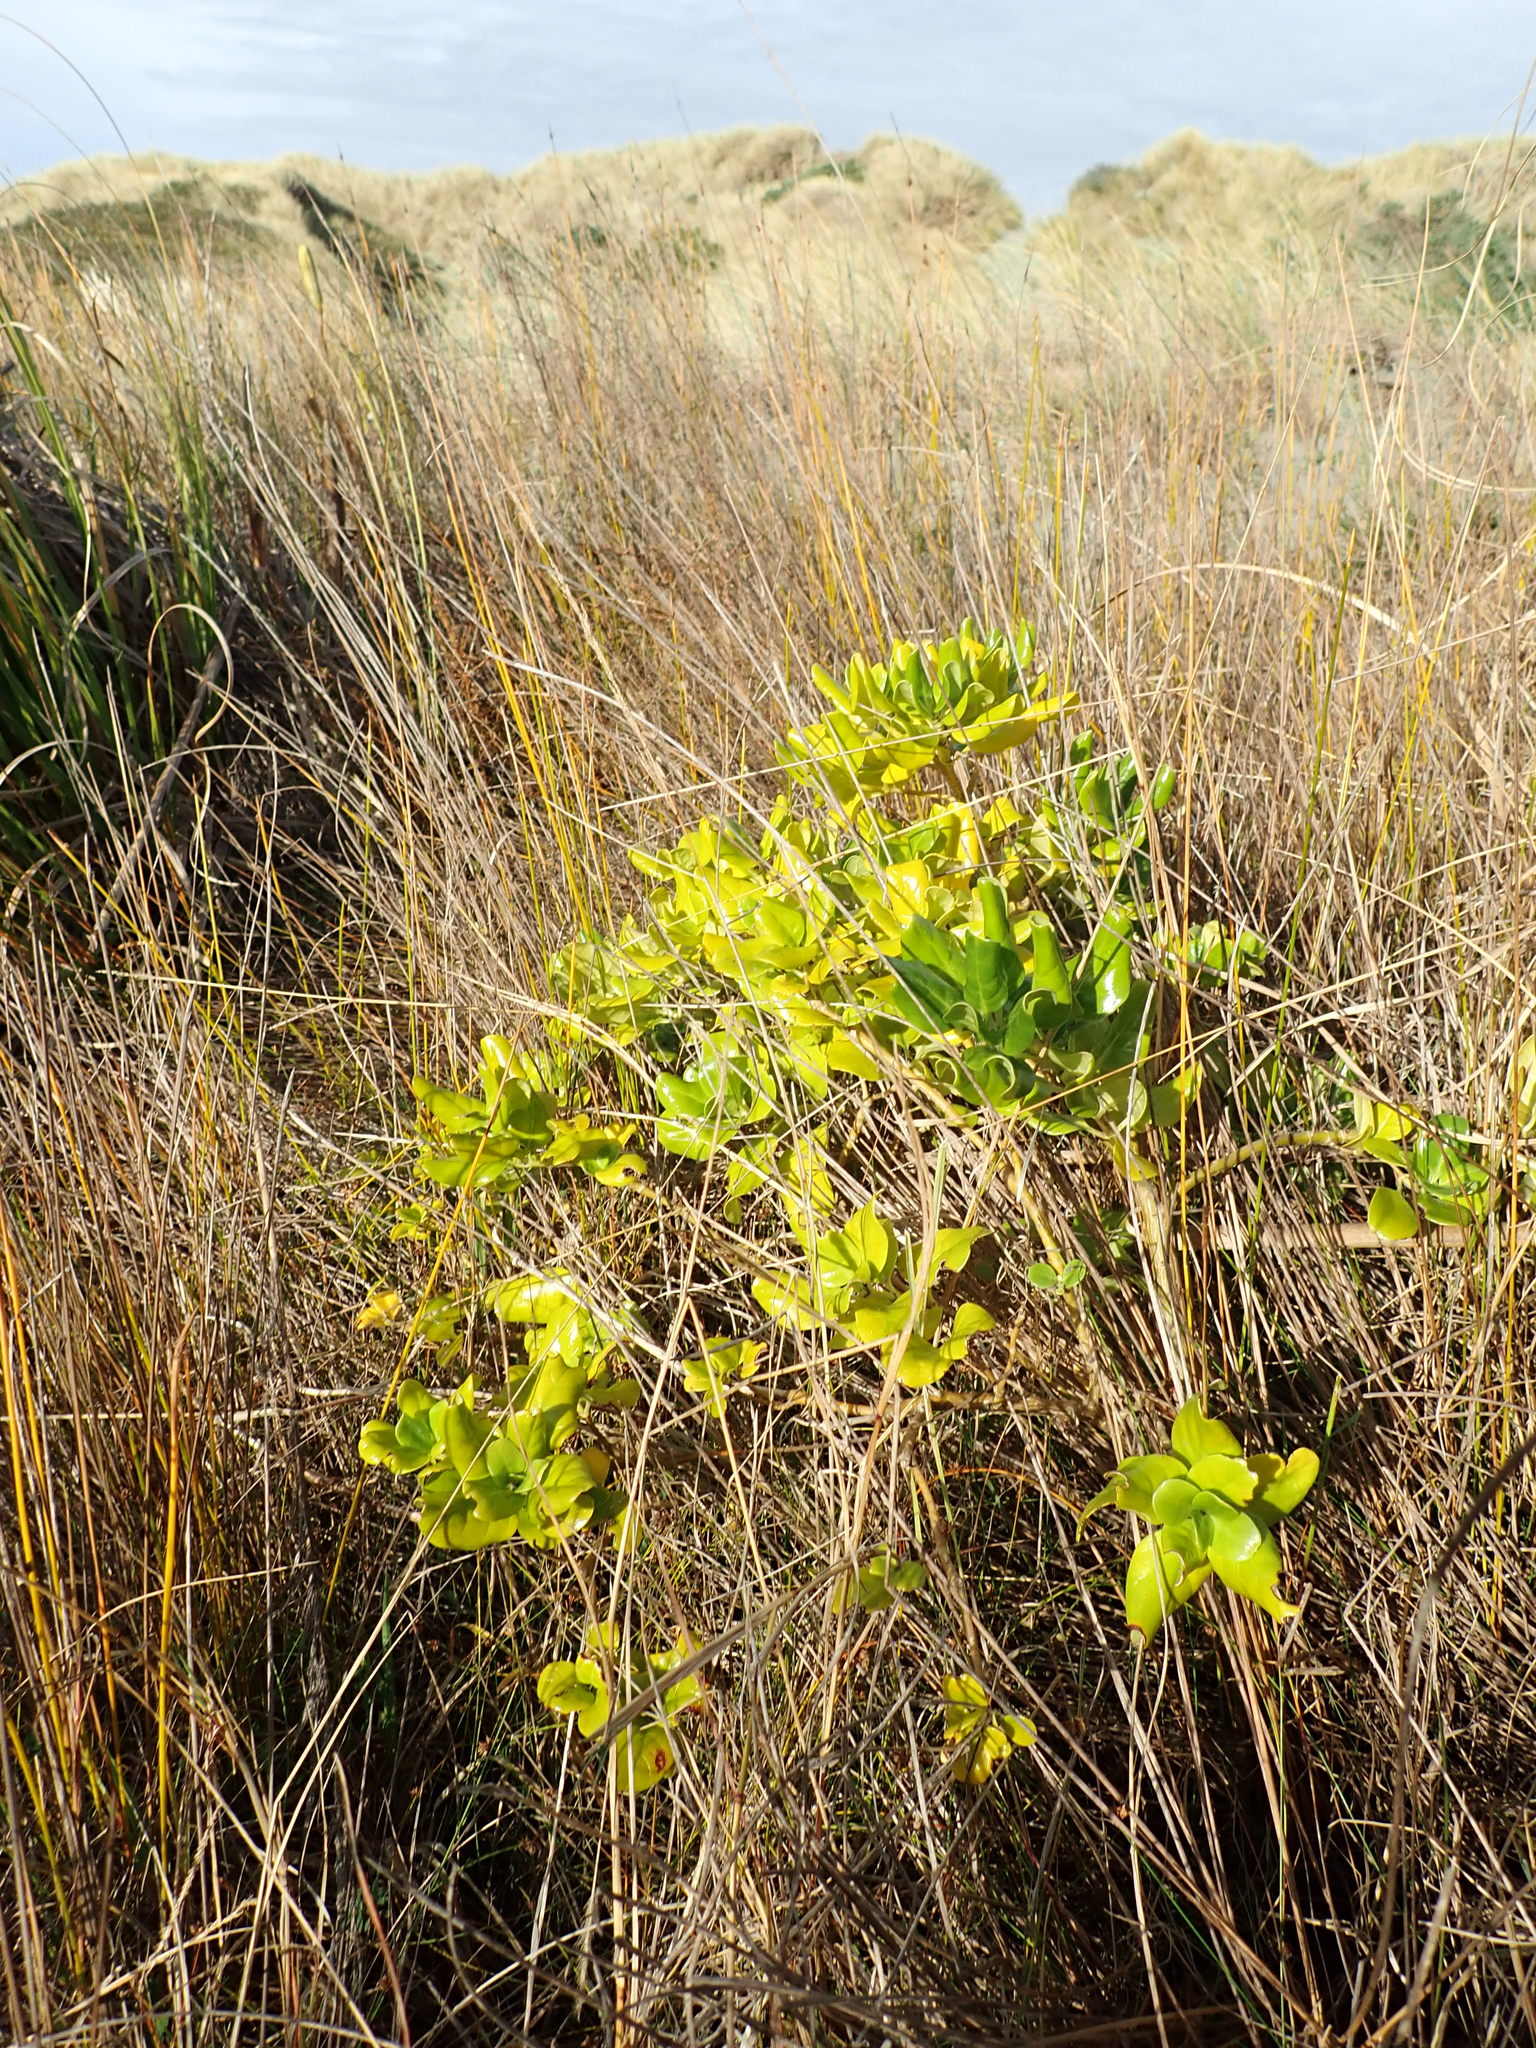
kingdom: Plantae
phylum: Tracheophyta
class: Magnoliopsida
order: Gentianales
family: Rubiaceae
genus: Coprosma
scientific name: Coprosma repens
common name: Tree bedstraw
